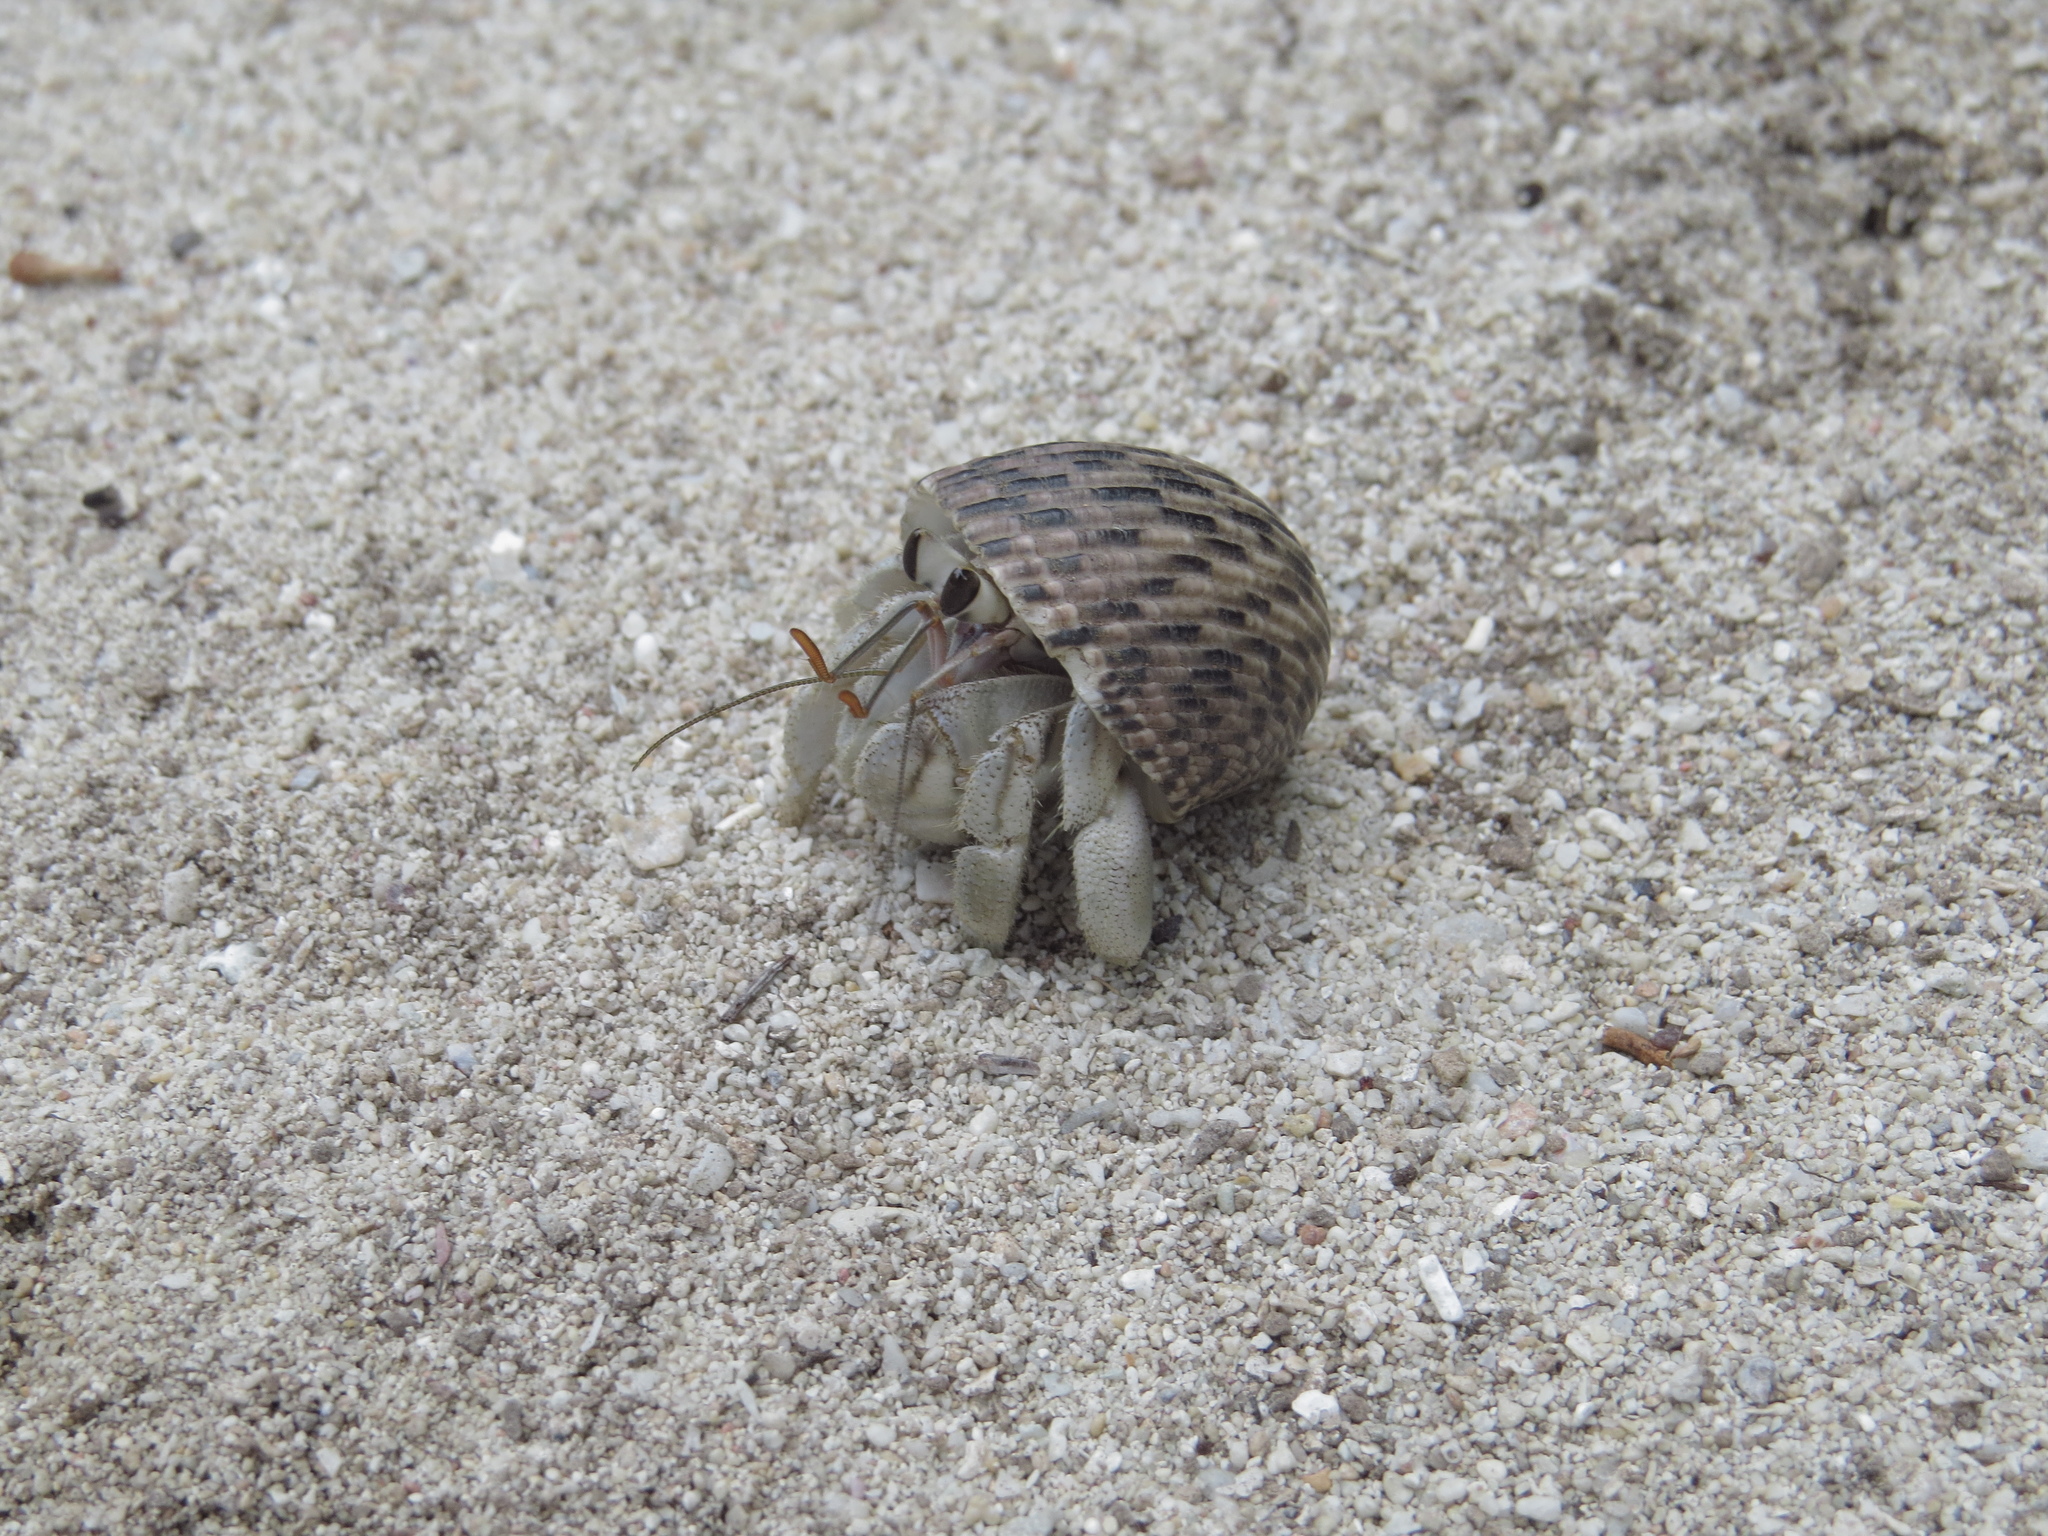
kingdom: Animalia
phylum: Arthropoda
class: Malacostraca
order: Decapoda
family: Coenobitidae
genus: Coenobita
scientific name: Coenobita rugosus
